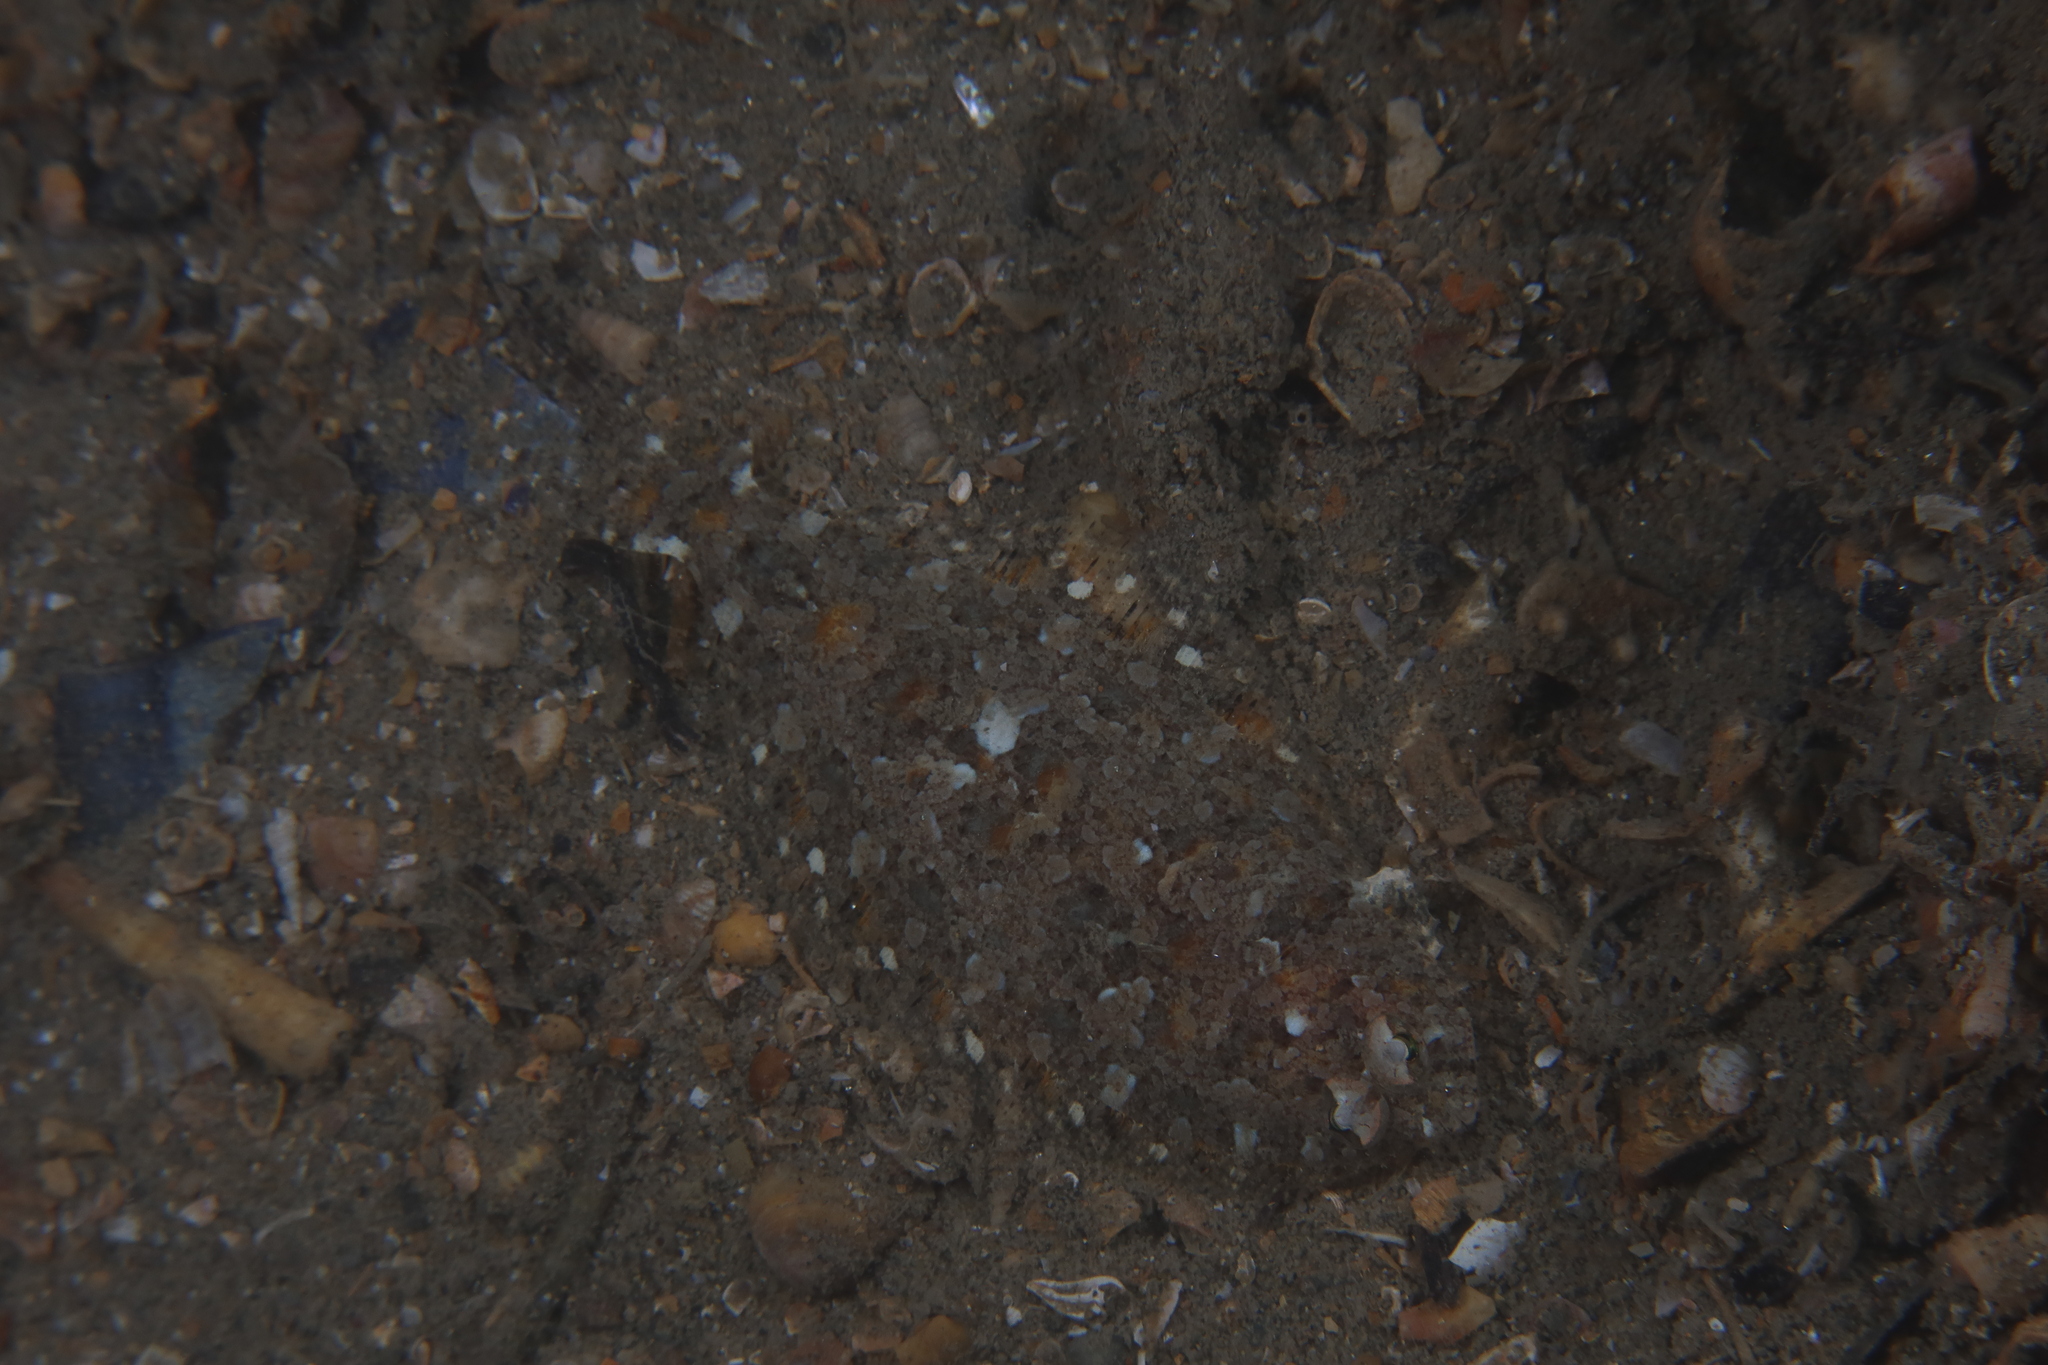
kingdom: Animalia
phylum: Chordata
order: Pleuronectiformes
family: Bothidae
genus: Arnoglossus
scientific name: Arnoglossus thori
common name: Thor's scaldfish
